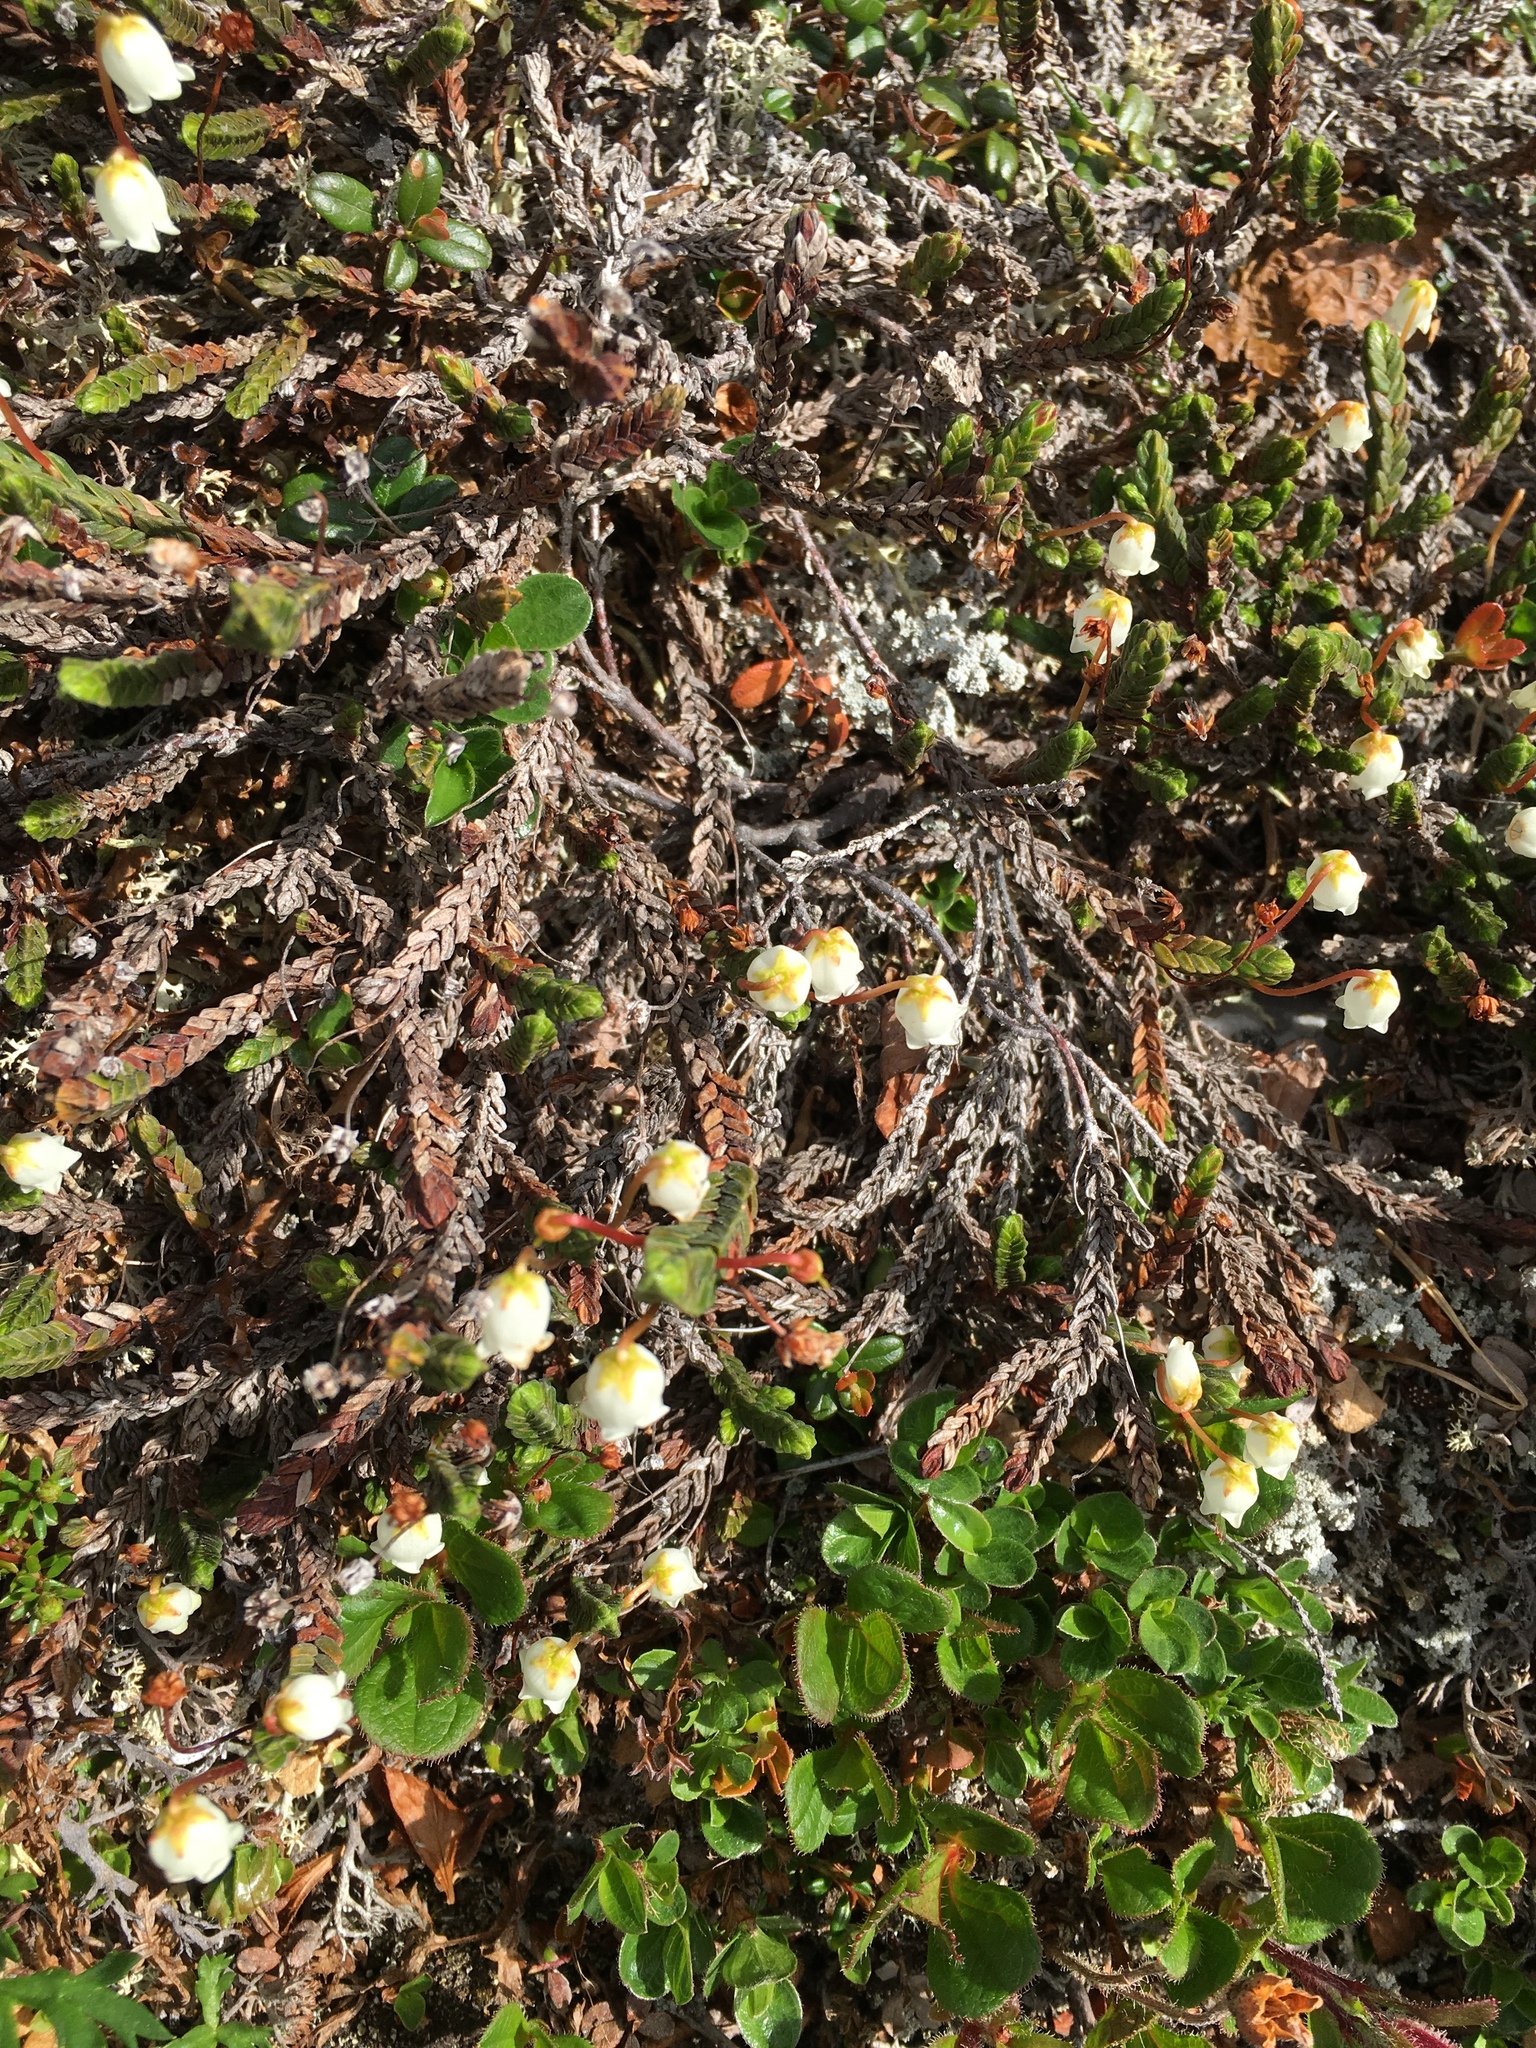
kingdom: Plantae
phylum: Tracheophyta
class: Magnoliopsida
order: Ericales
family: Ericaceae
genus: Cassiope
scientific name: Cassiope tetragona
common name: Arctic bell heather
